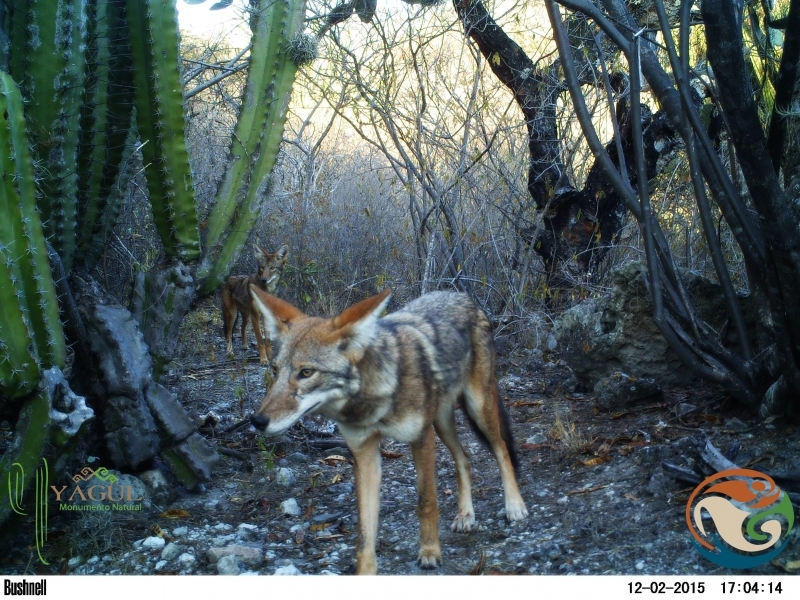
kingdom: Animalia
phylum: Chordata
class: Mammalia
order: Carnivora
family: Canidae
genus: Canis
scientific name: Canis latrans
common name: Coyote
